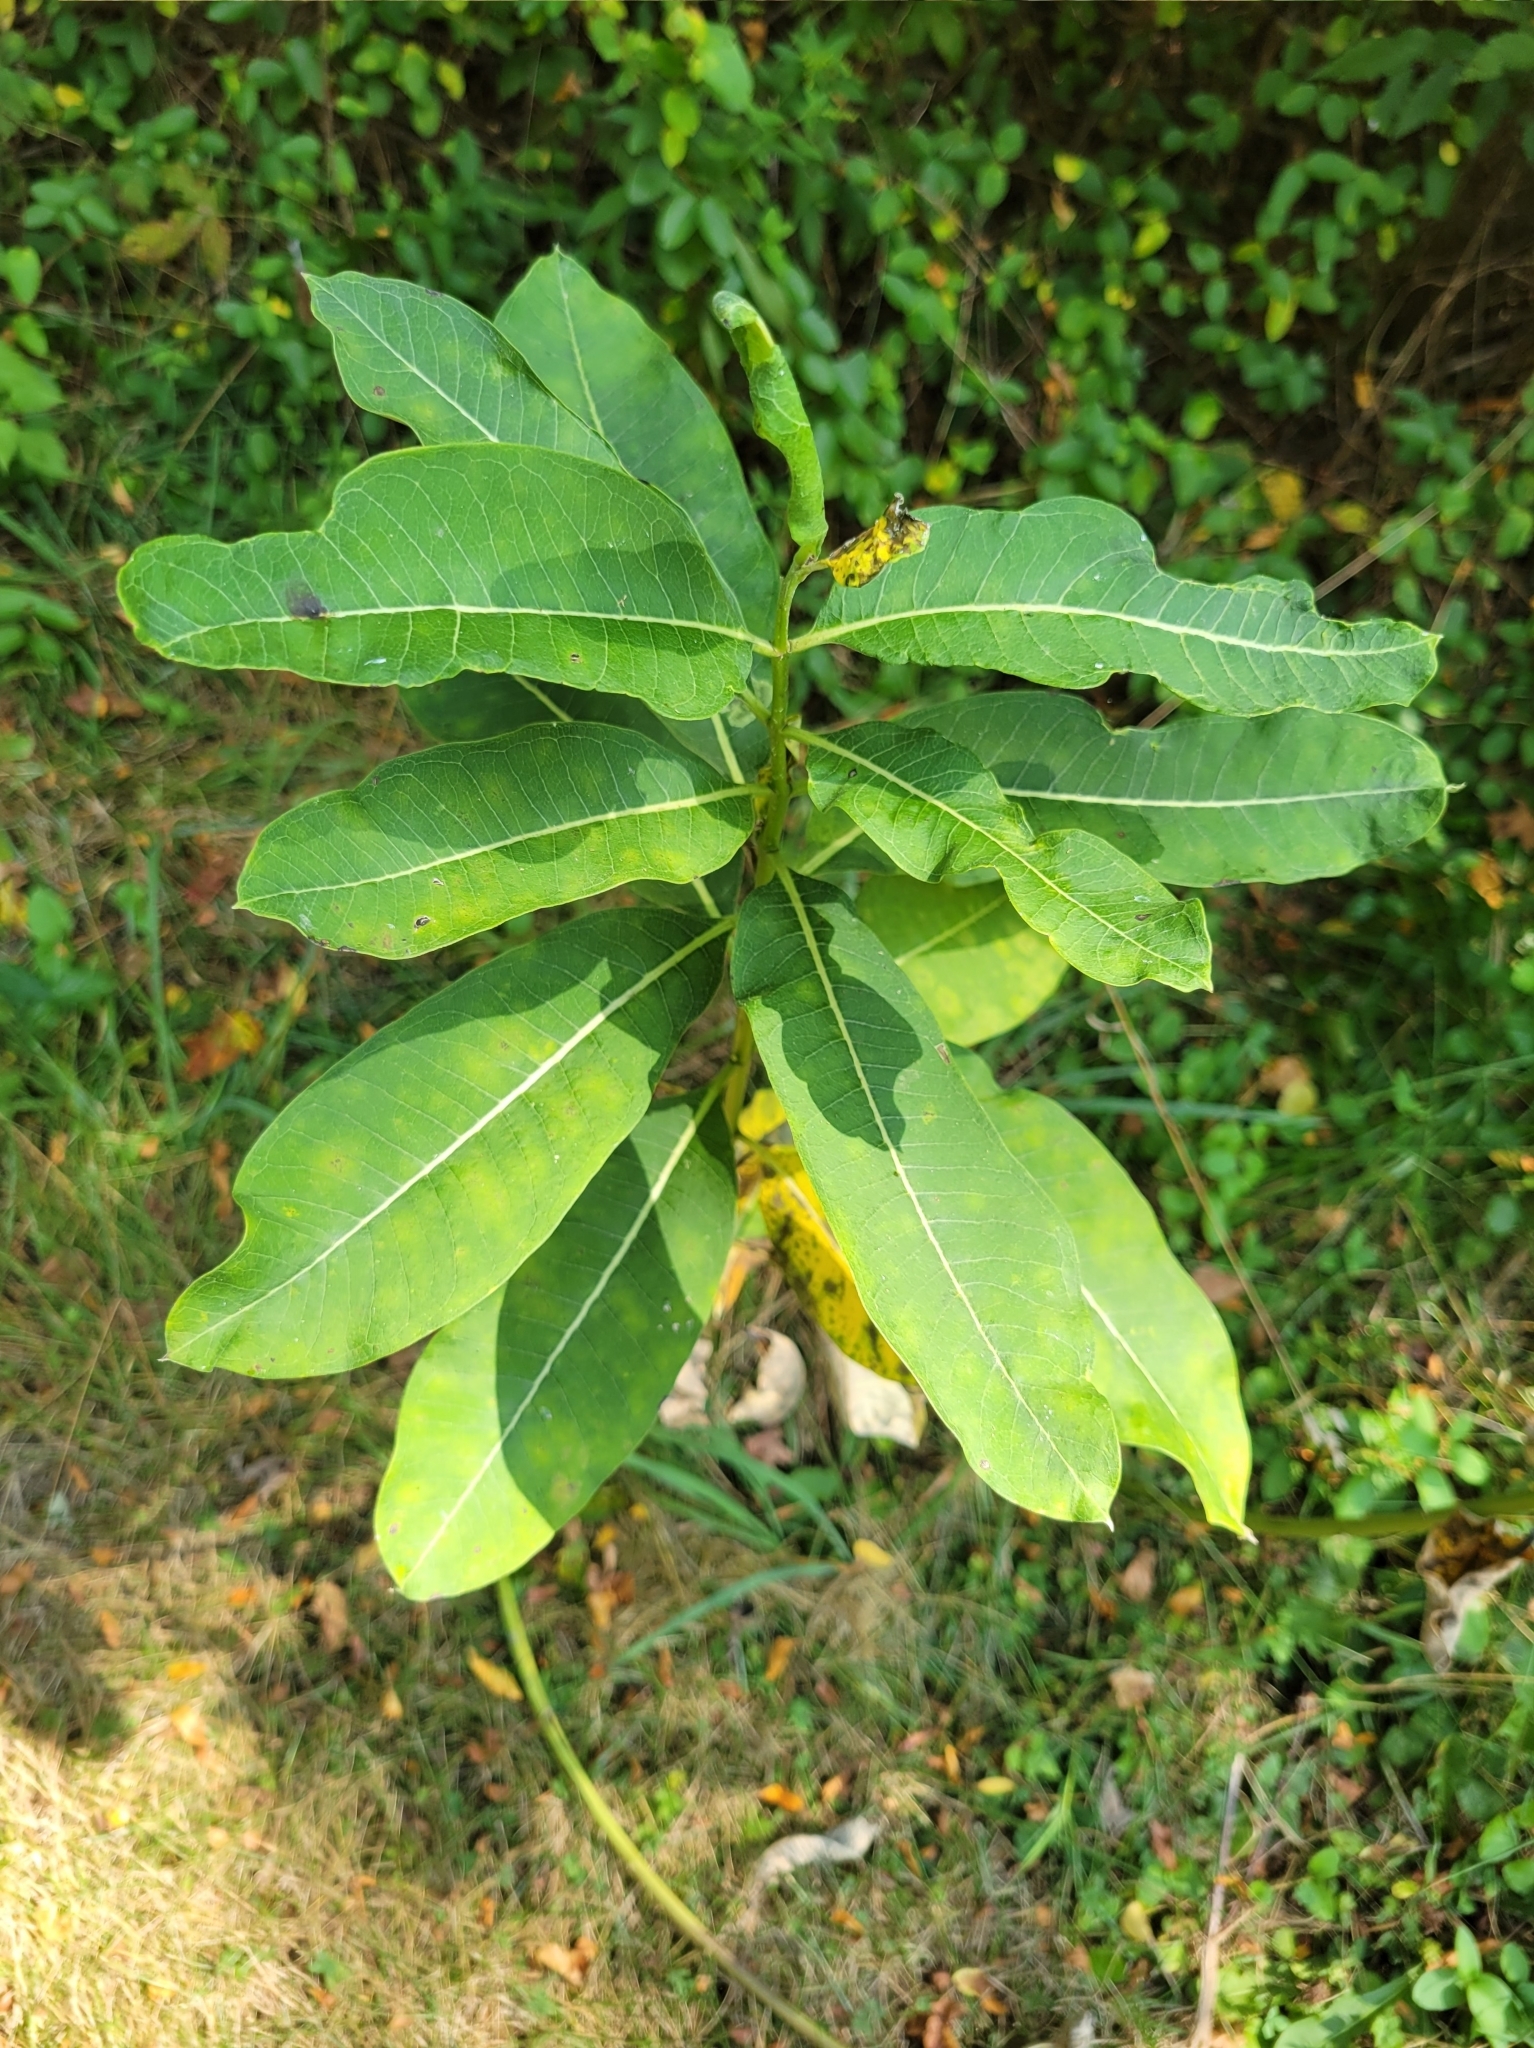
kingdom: Plantae
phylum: Tracheophyta
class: Magnoliopsida
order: Gentianales
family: Apocynaceae
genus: Asclepias
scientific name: Asclepias syriaca
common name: Common milkweed
